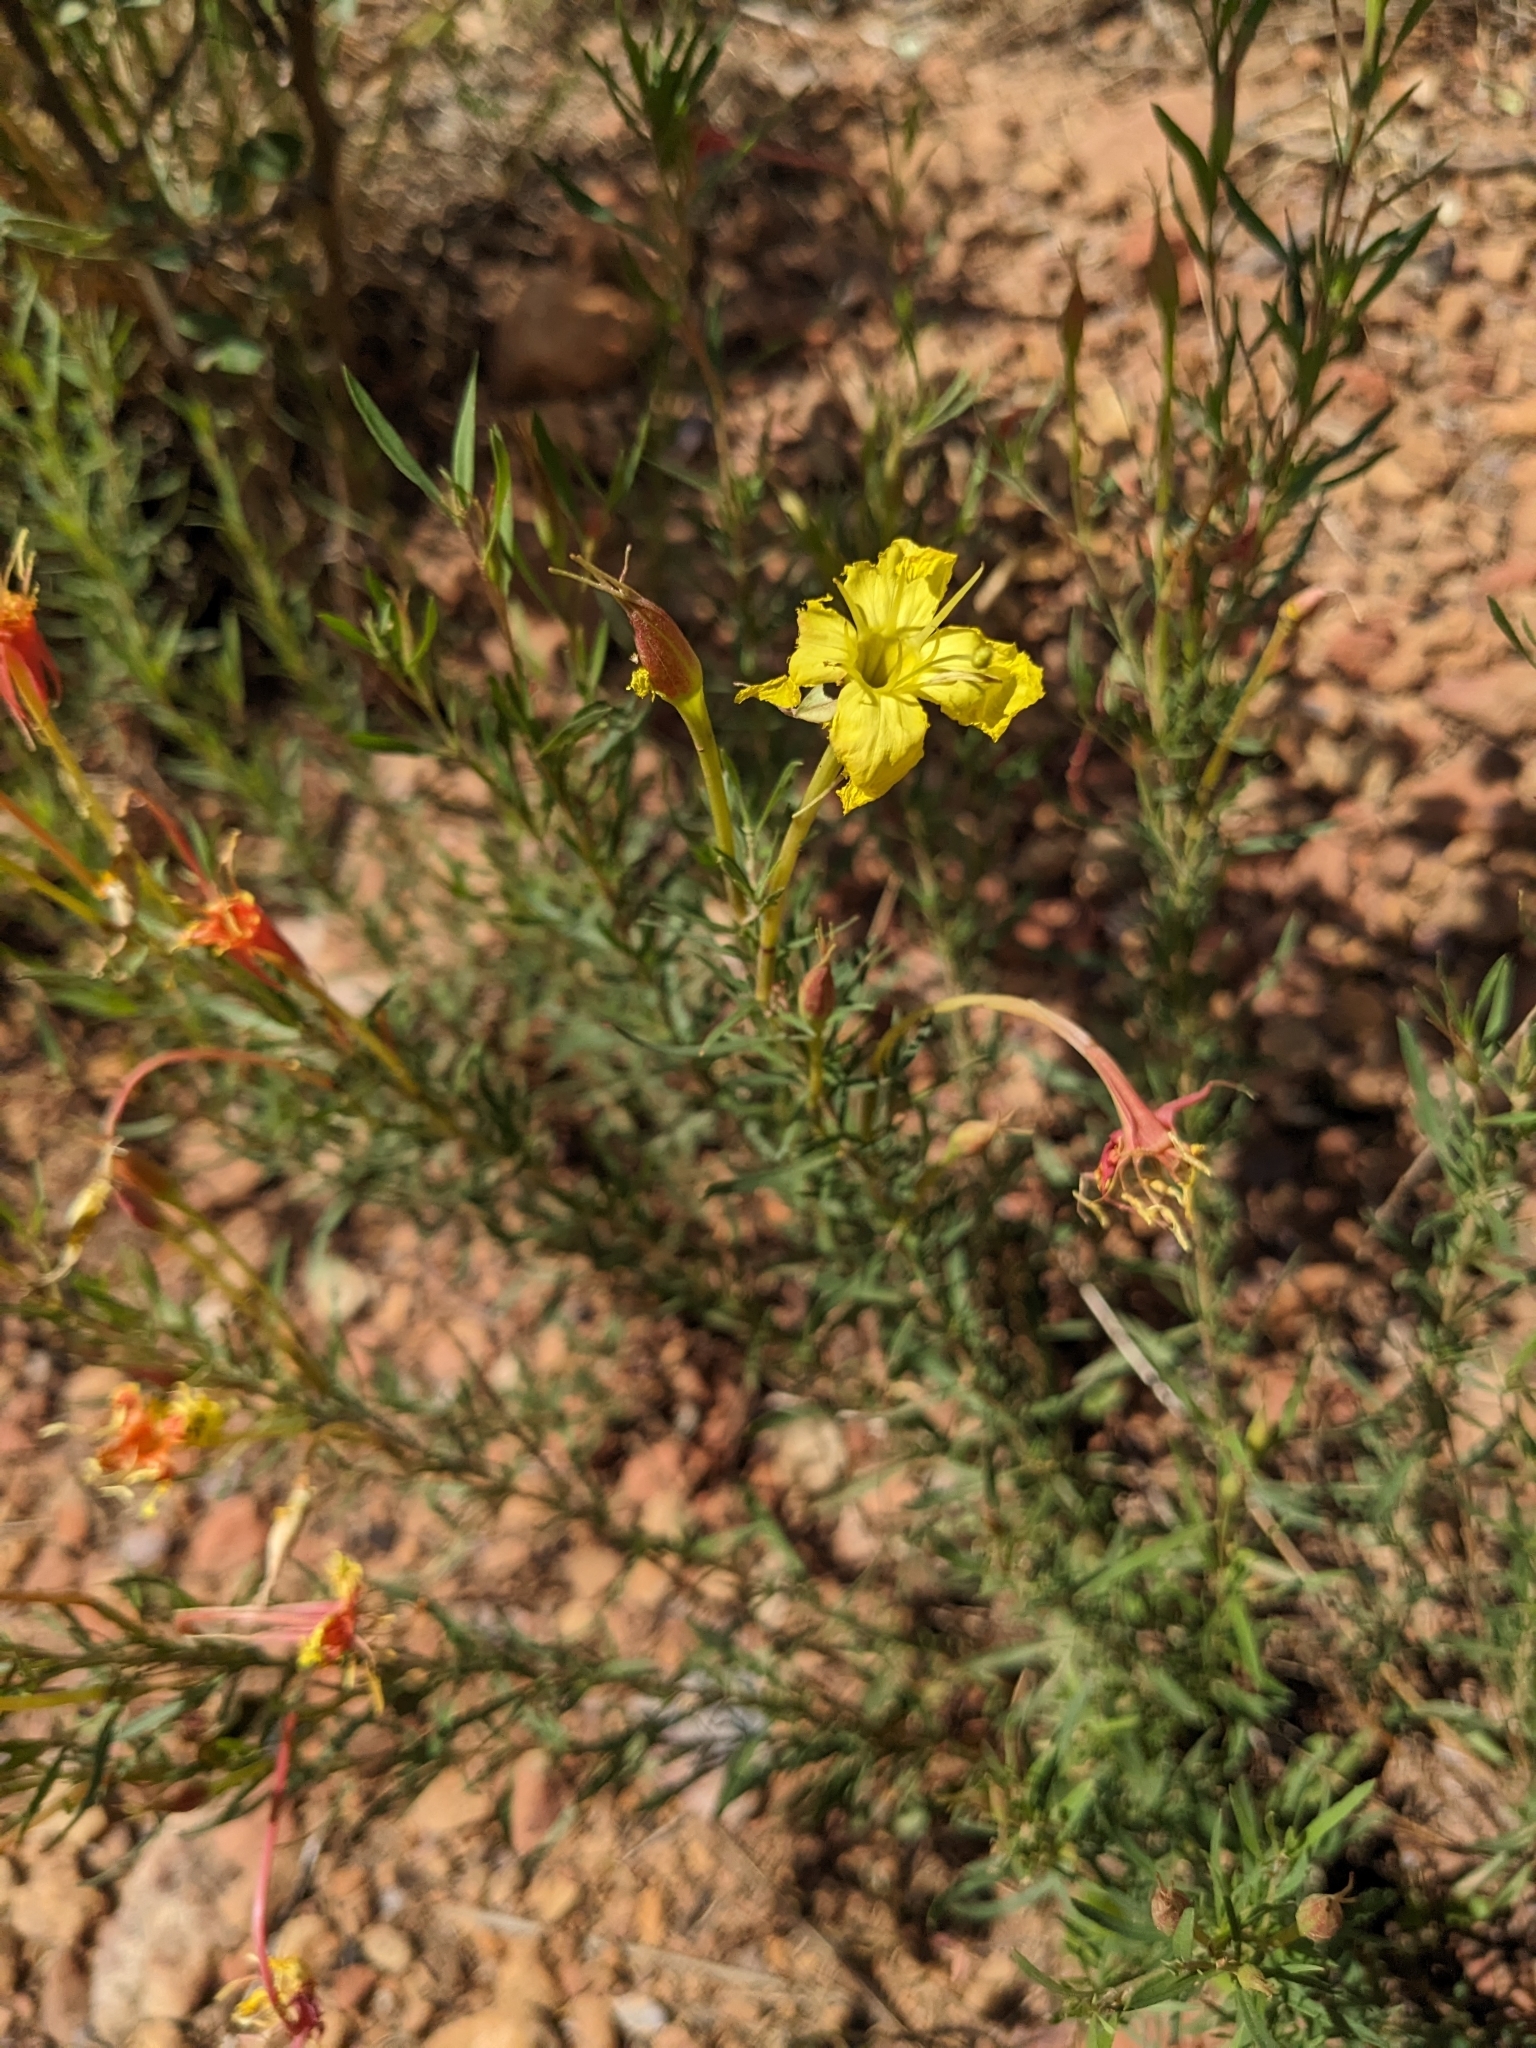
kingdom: Plantae
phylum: Tracheophyta
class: Magnoliopsida
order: Myrtales
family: Onagraceae
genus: Oenothera
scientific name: Oenothera toumeyi
